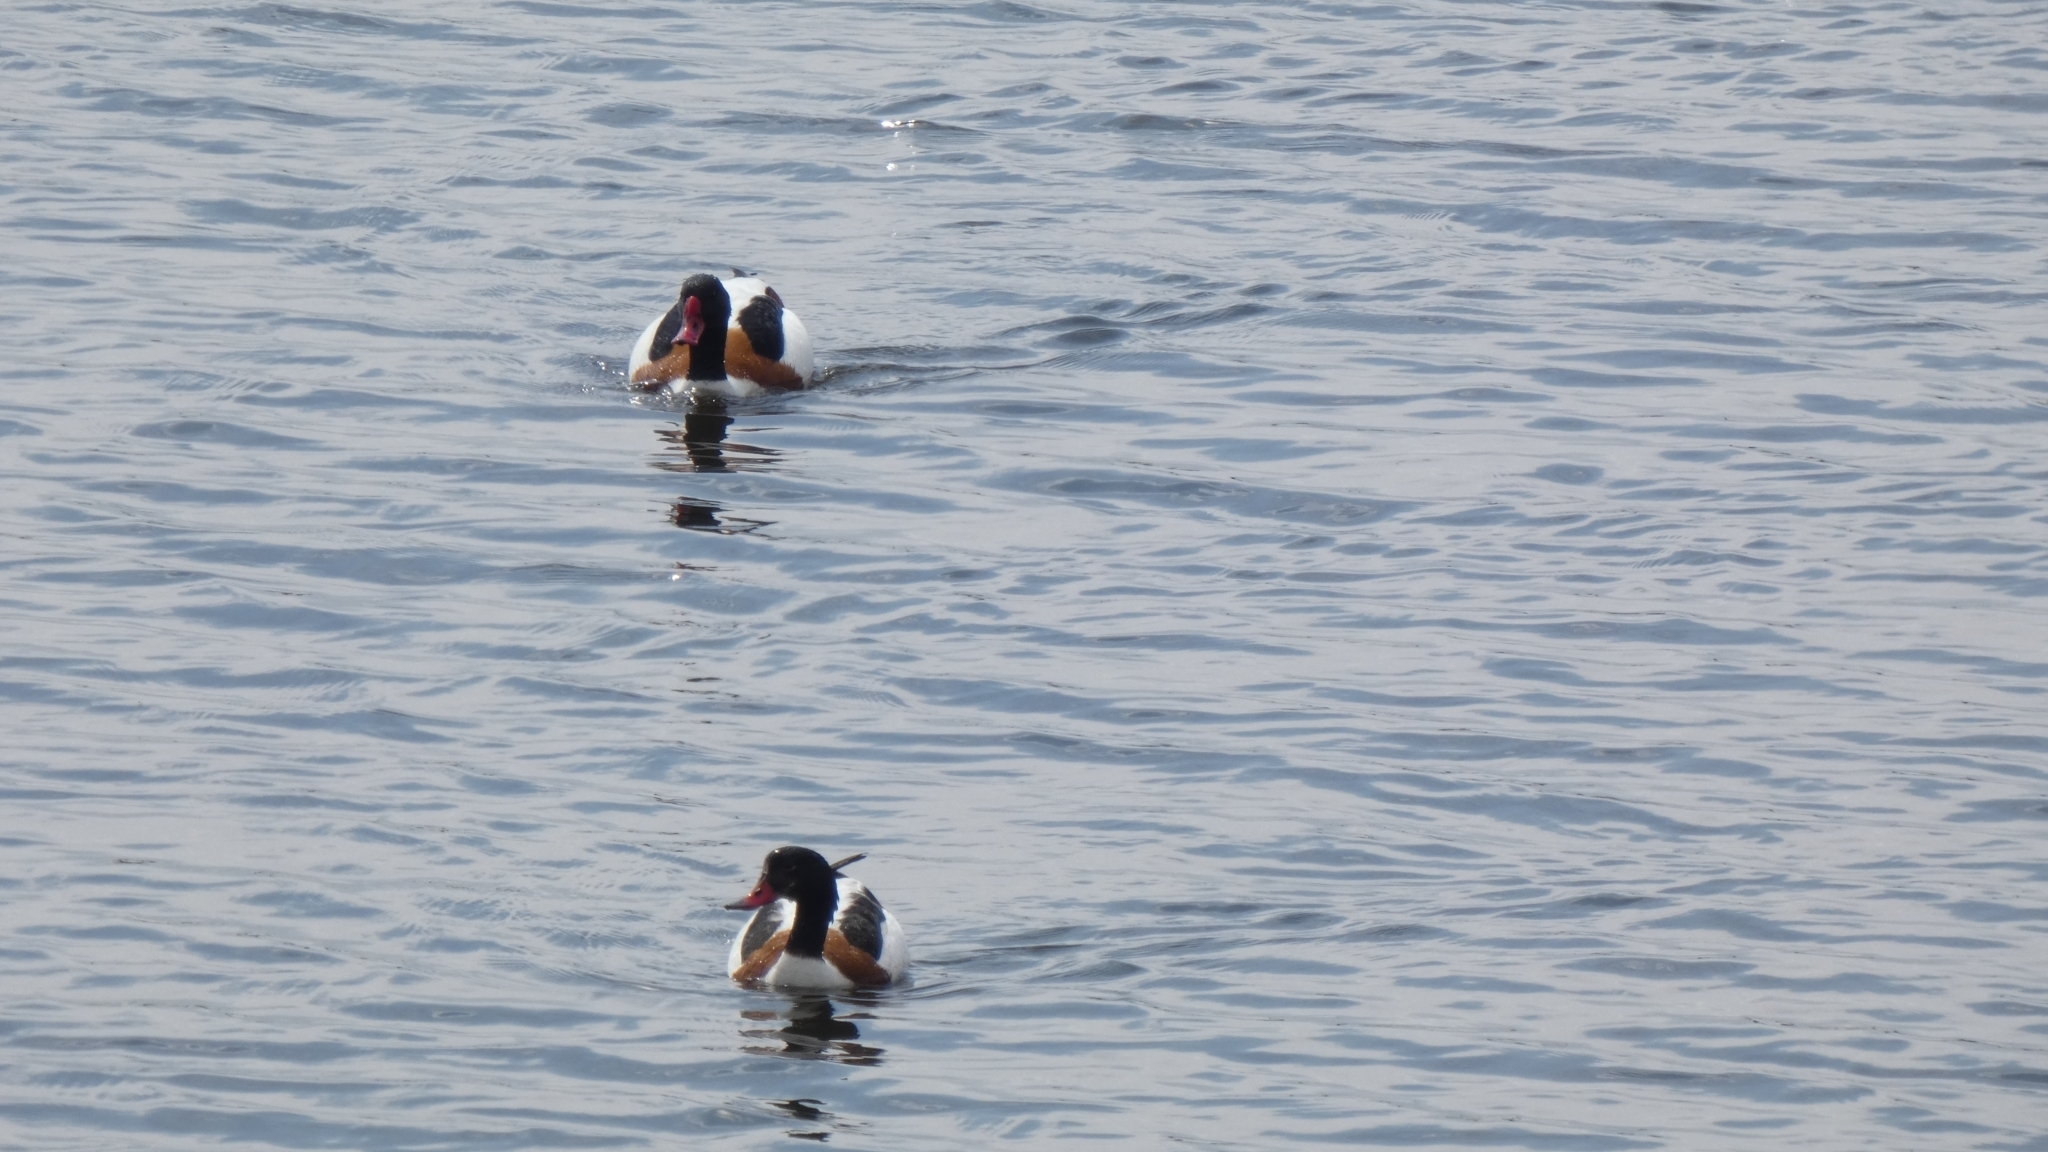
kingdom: Animalia
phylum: Chordata
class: Aves
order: Anseriformes
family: Anatidae
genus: Tadorna
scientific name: Tadorna tadorna
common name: Common shelduck
